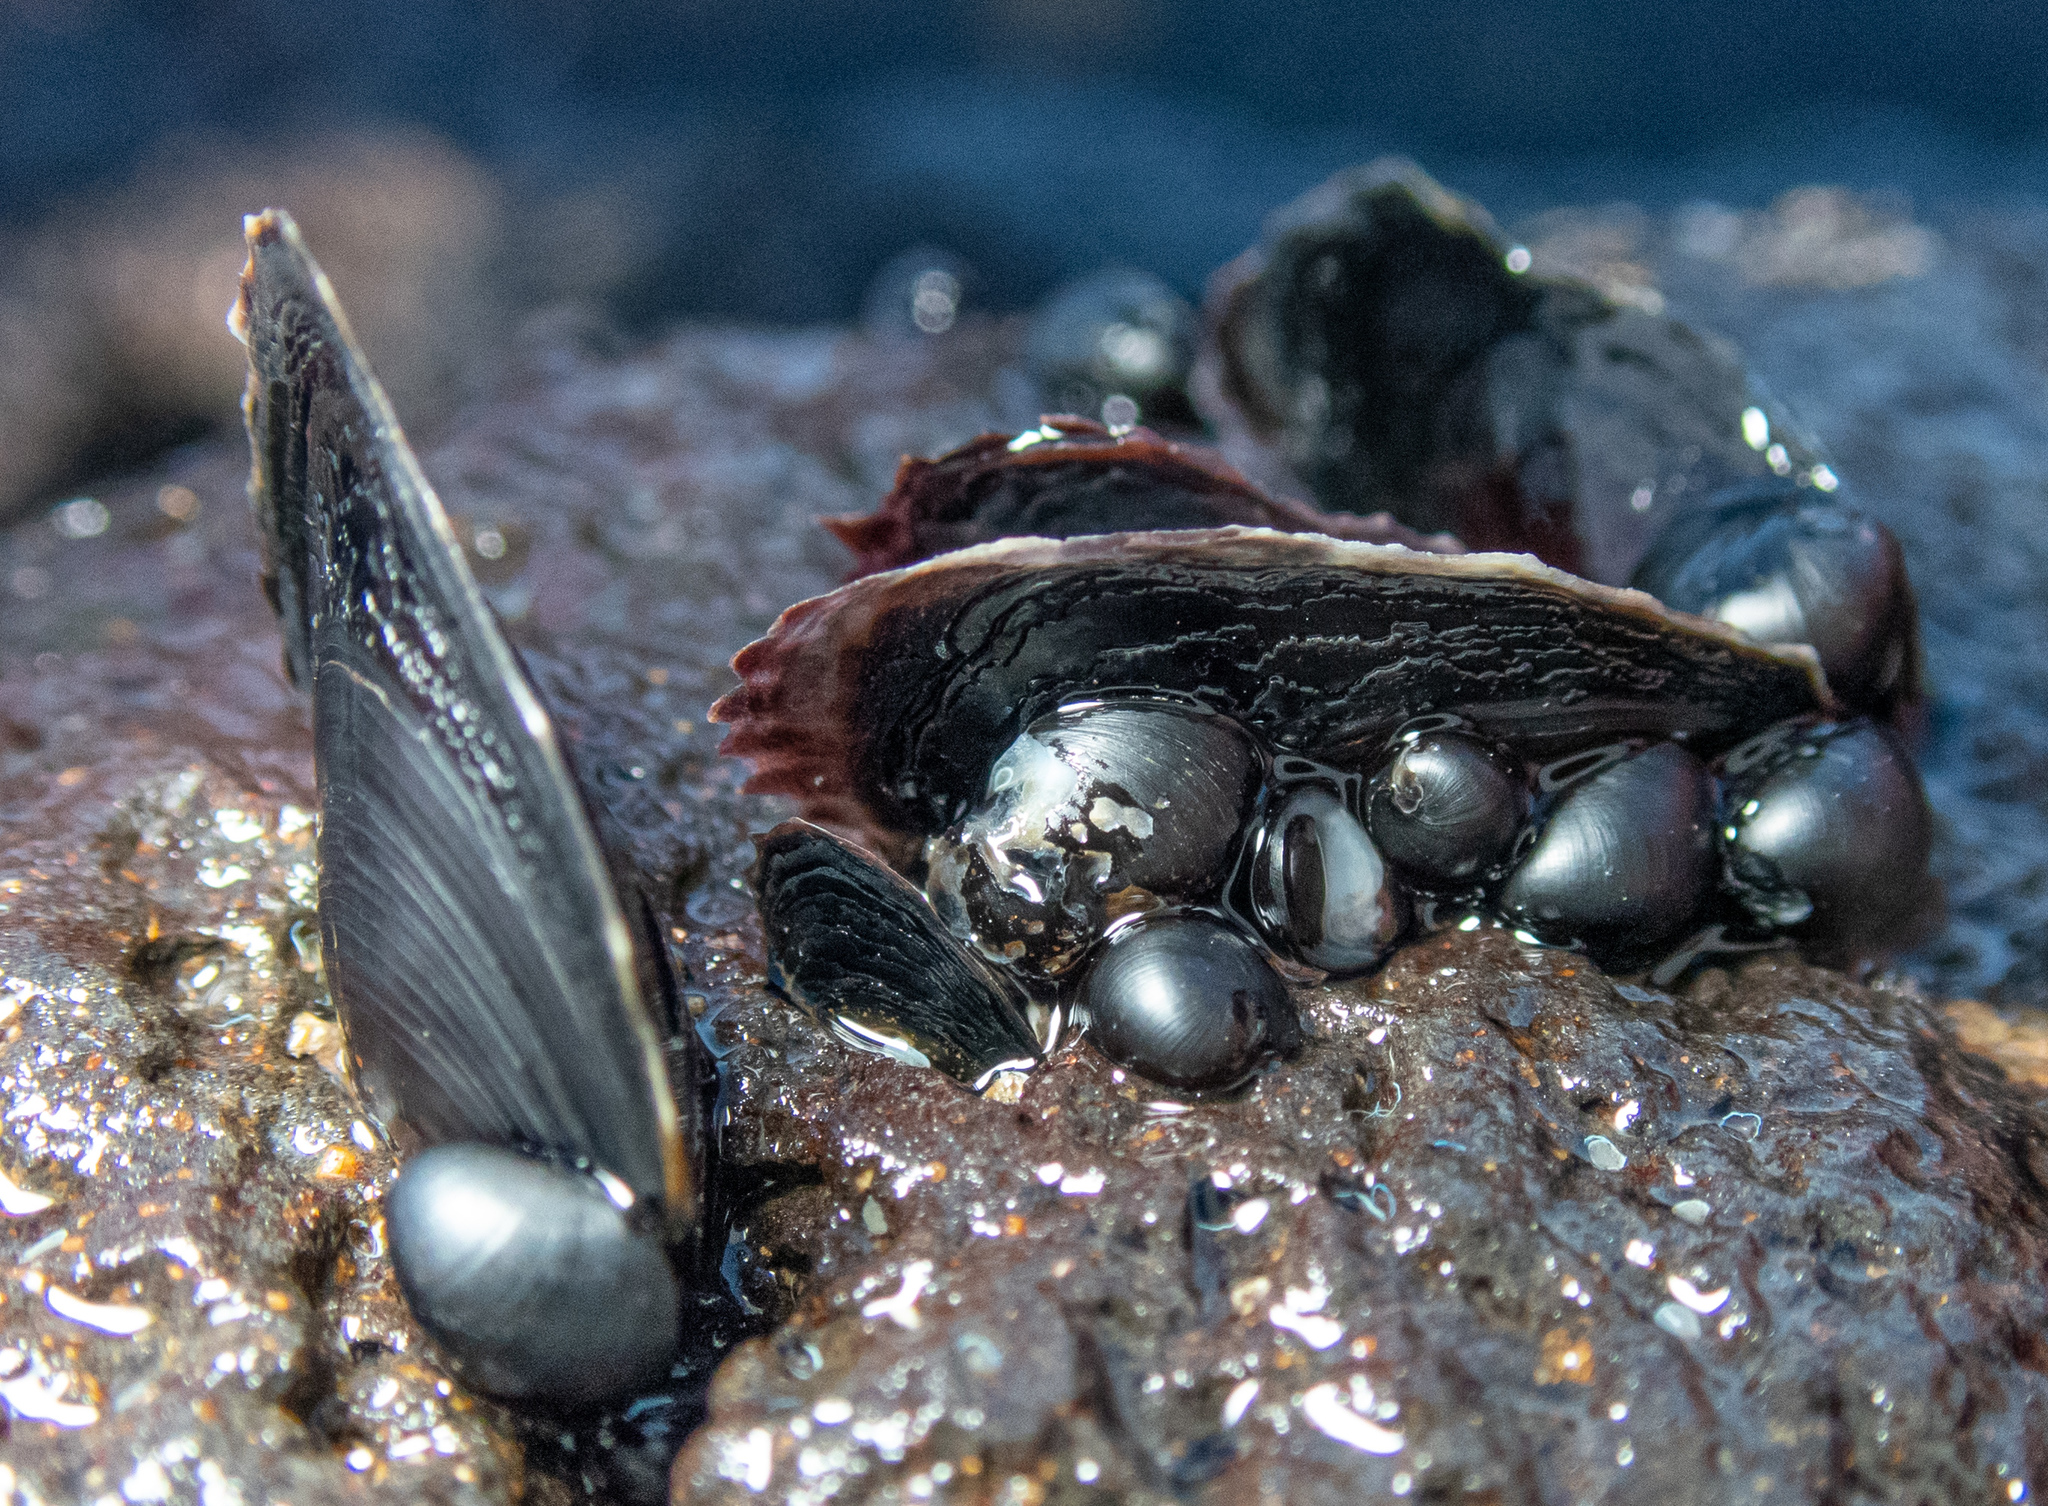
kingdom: Animalia
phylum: Mollusca
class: Bivalvia
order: Ostreida
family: Isognomonidae
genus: Isognomon
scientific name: Isognomon californicus
